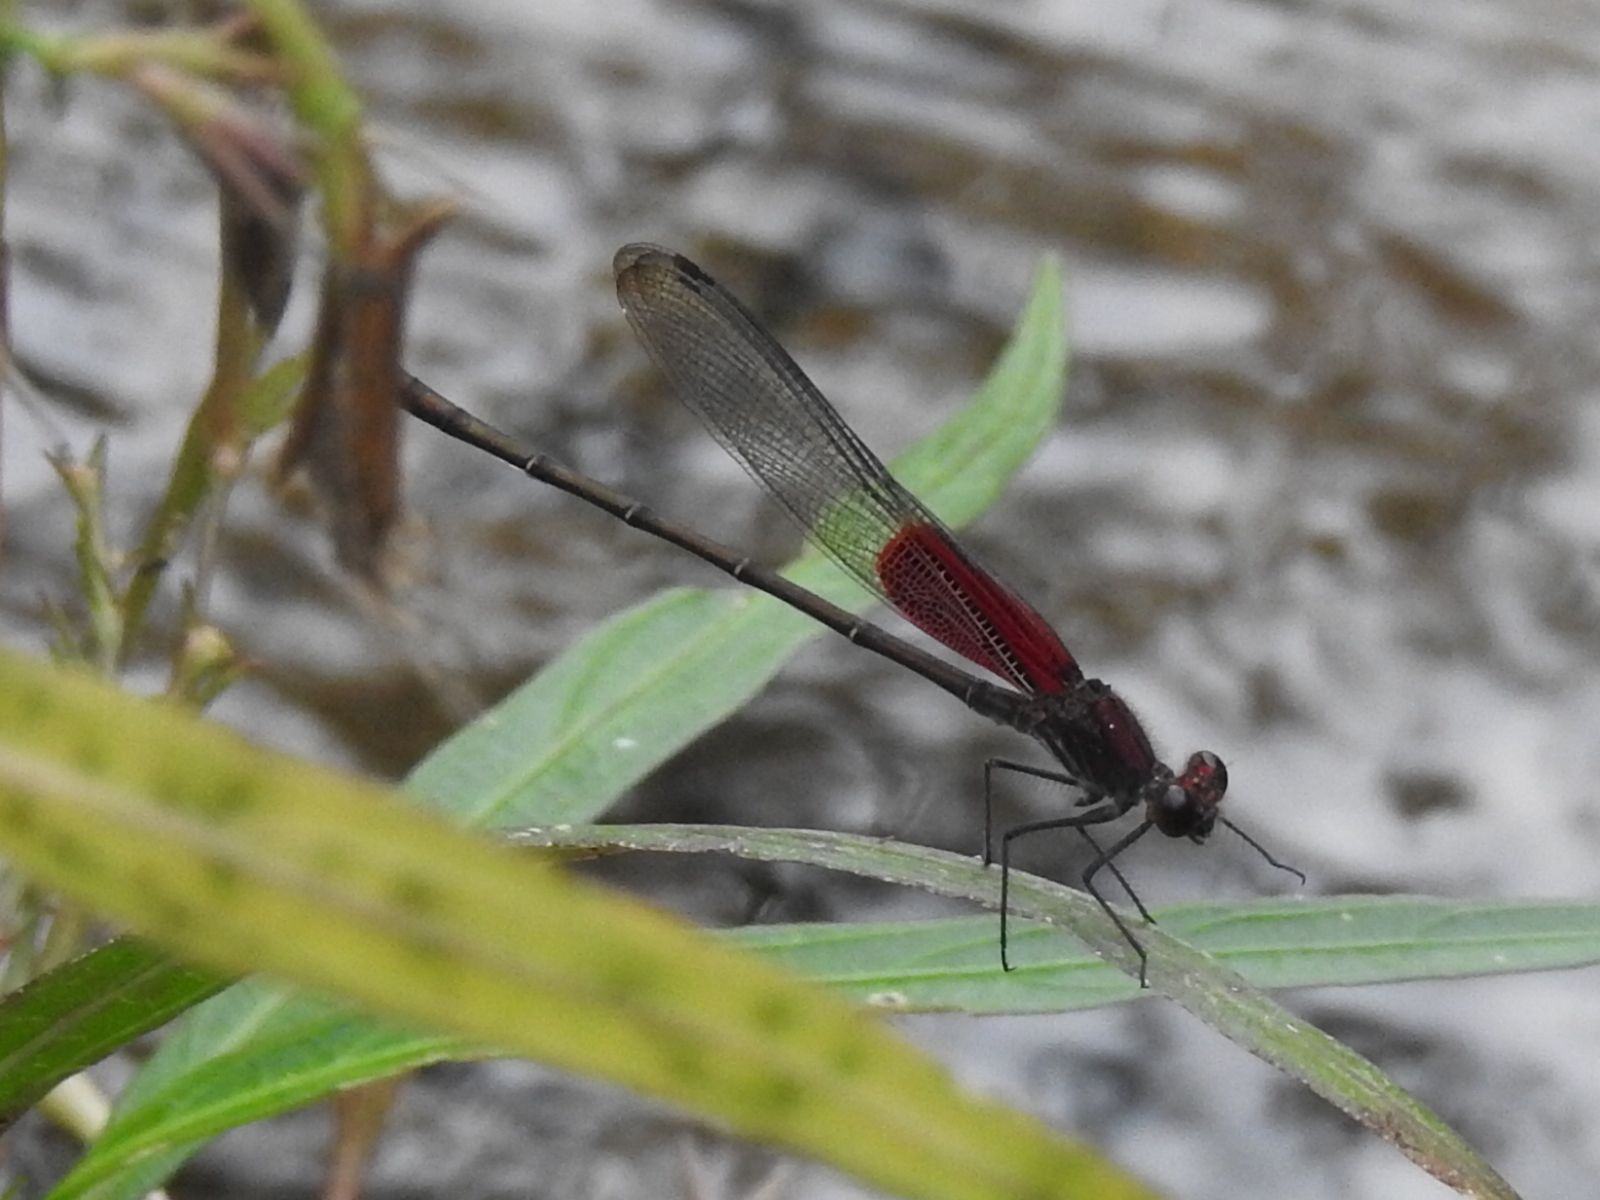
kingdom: Animalia
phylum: Arthropoda
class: Insecta
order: Odonata
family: Calopterygidae
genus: Hetaerina
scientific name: Hetaerina americana
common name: American rubyspot
